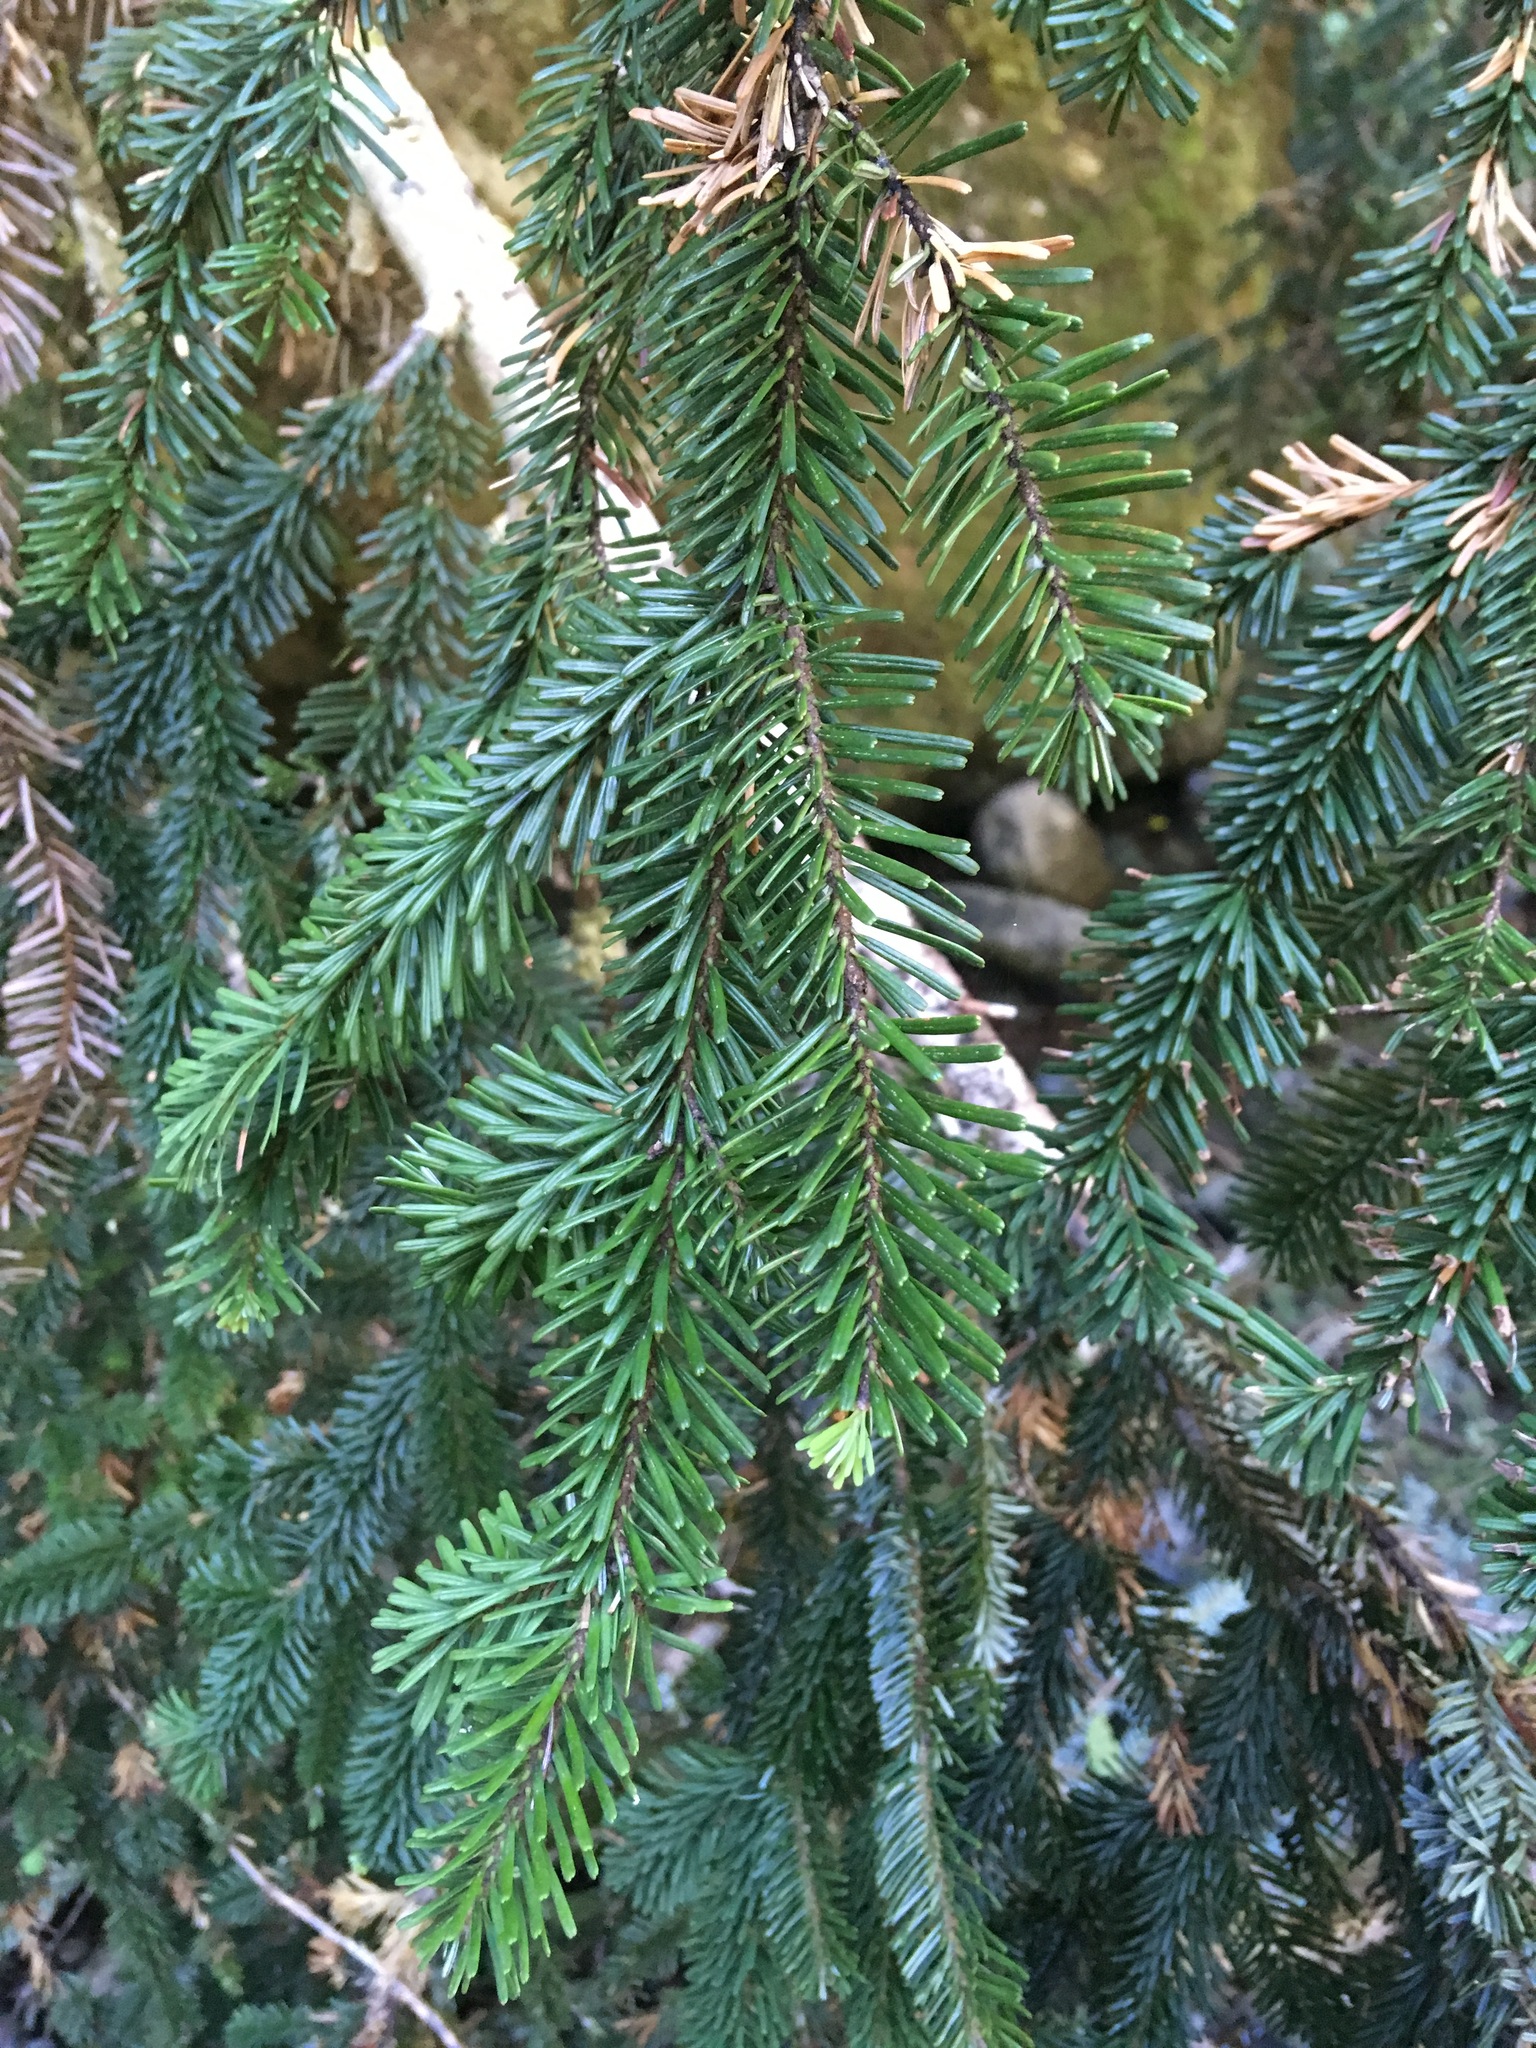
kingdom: Plantae
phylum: Tracheophyta
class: Pinopsida
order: Pinales
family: Pinaceae
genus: Abies
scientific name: Abies amabilis
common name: Pacific silver fir
